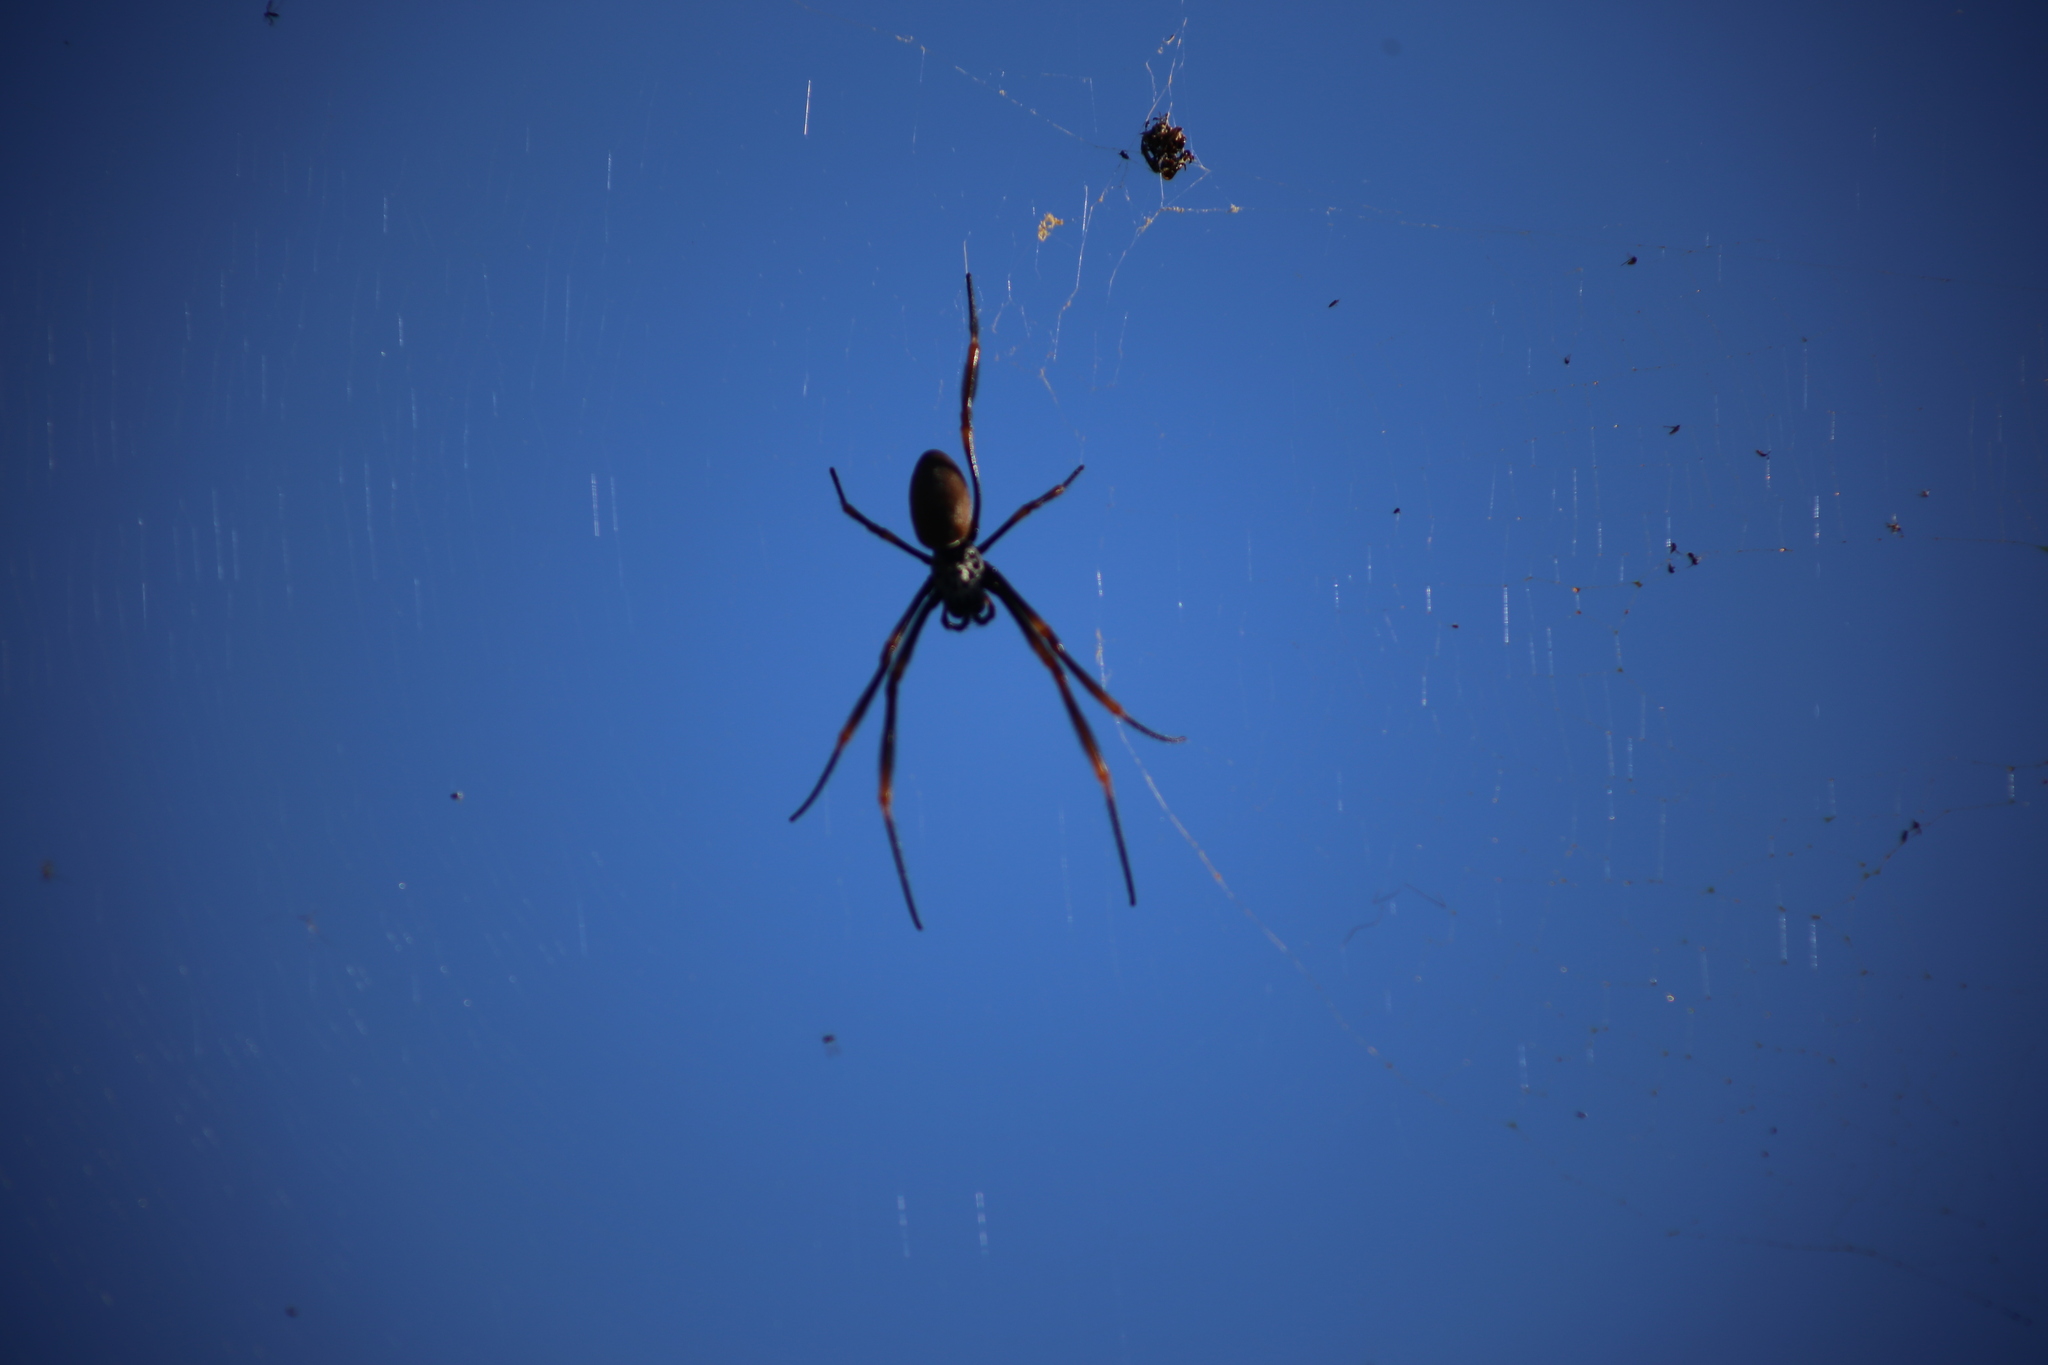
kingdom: Animalia
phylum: Arthropoda
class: Arachnida
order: Araneae
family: Araneidae
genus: Trichonephila
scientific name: Trichonephila plumipes
